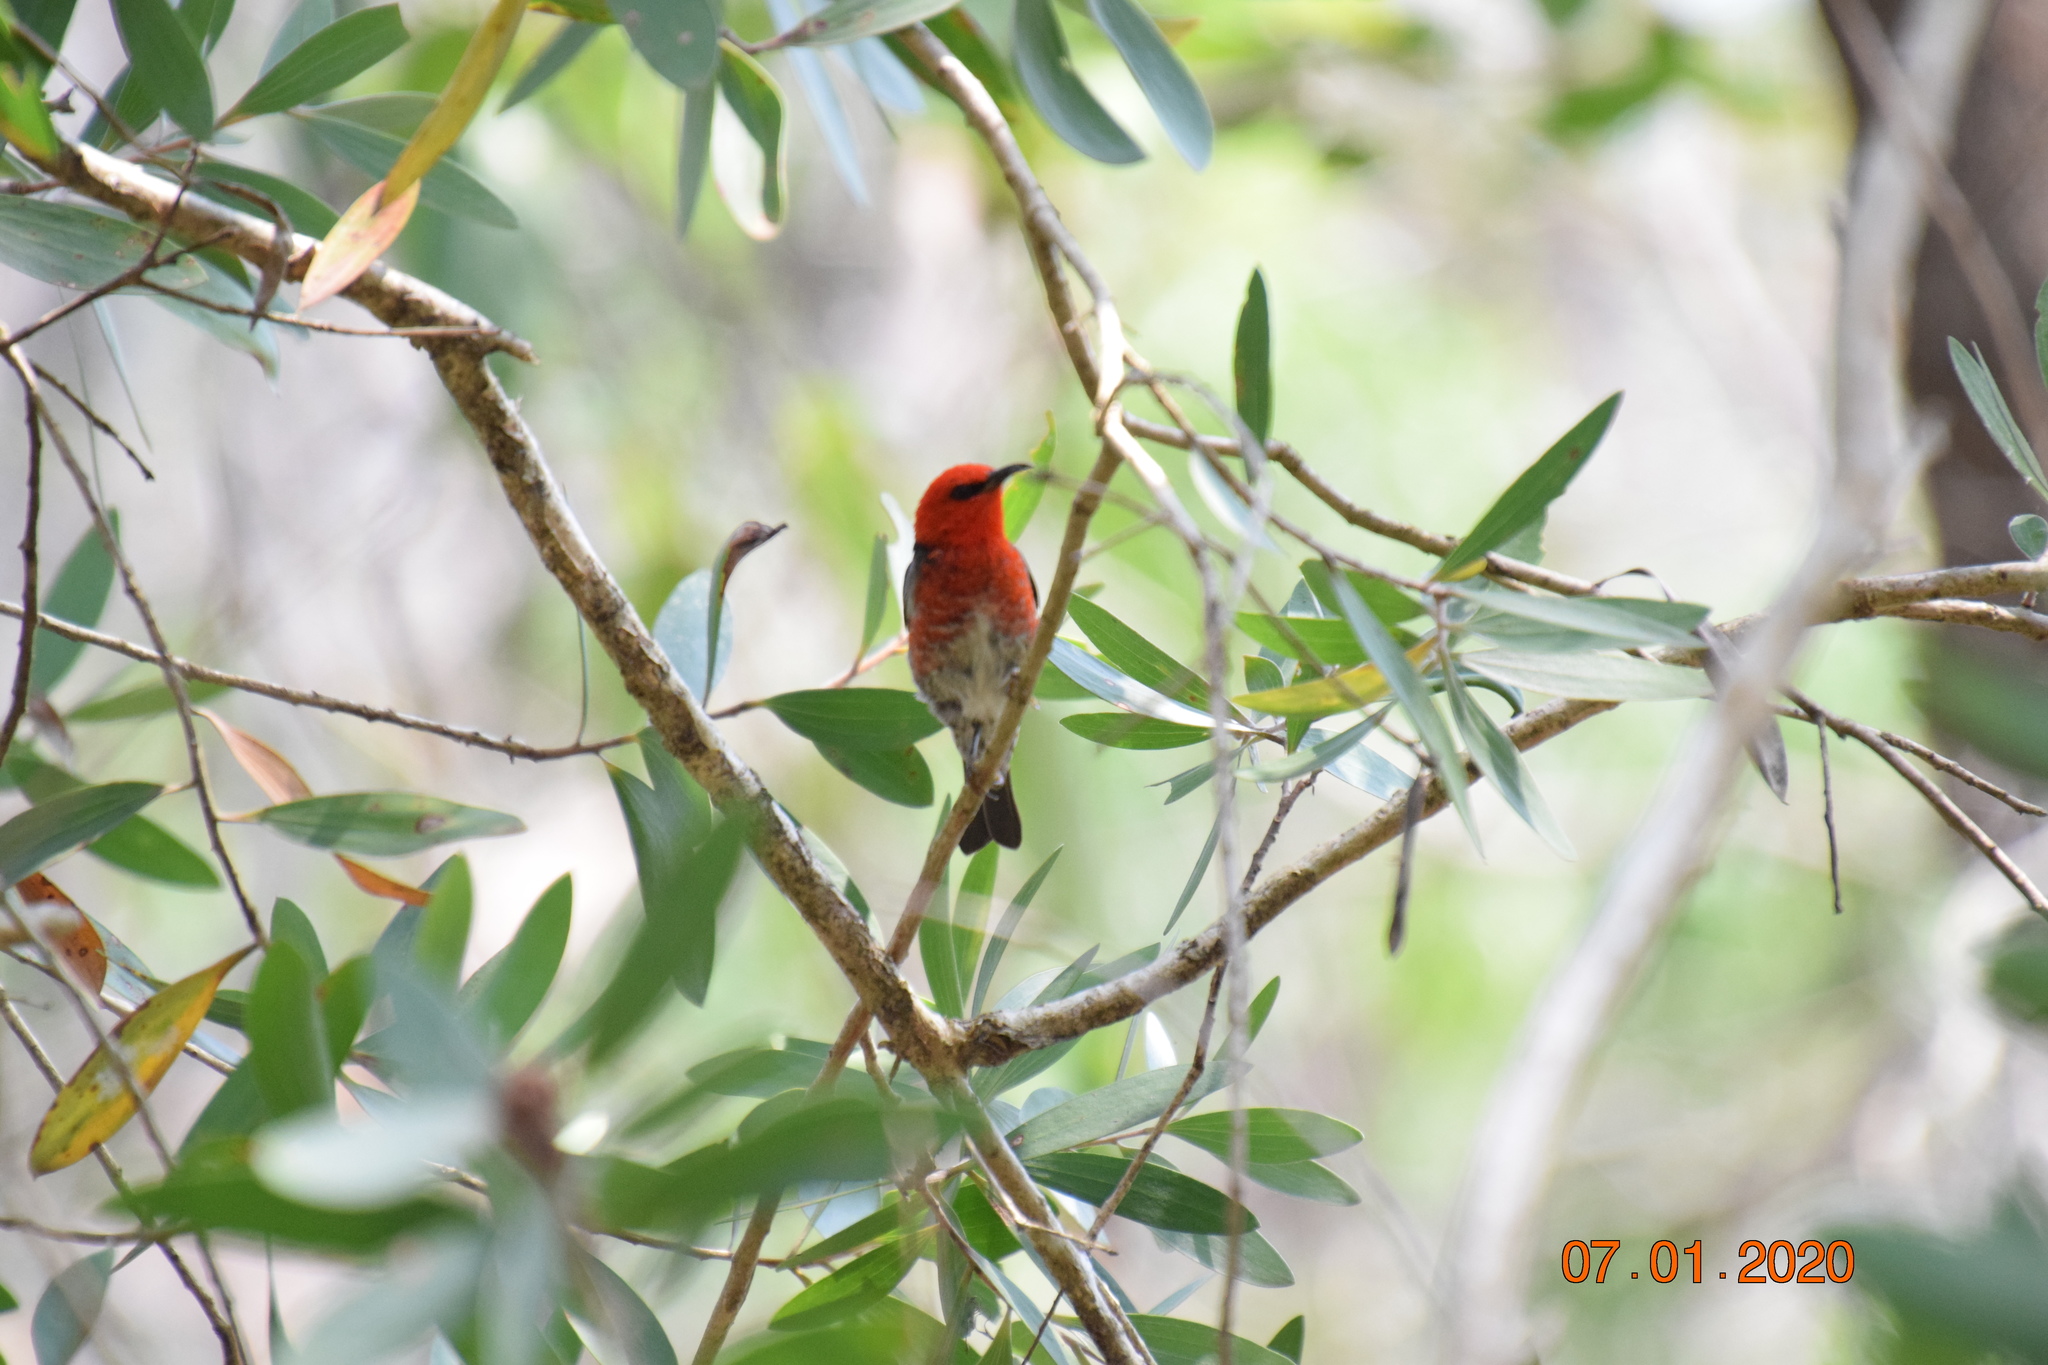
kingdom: Animalia
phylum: Chordata
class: Aves
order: Passeriformes
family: Meliphagidae
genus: Myzomela
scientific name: Myzomela sanguinolenta
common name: Scarlet myzomela
